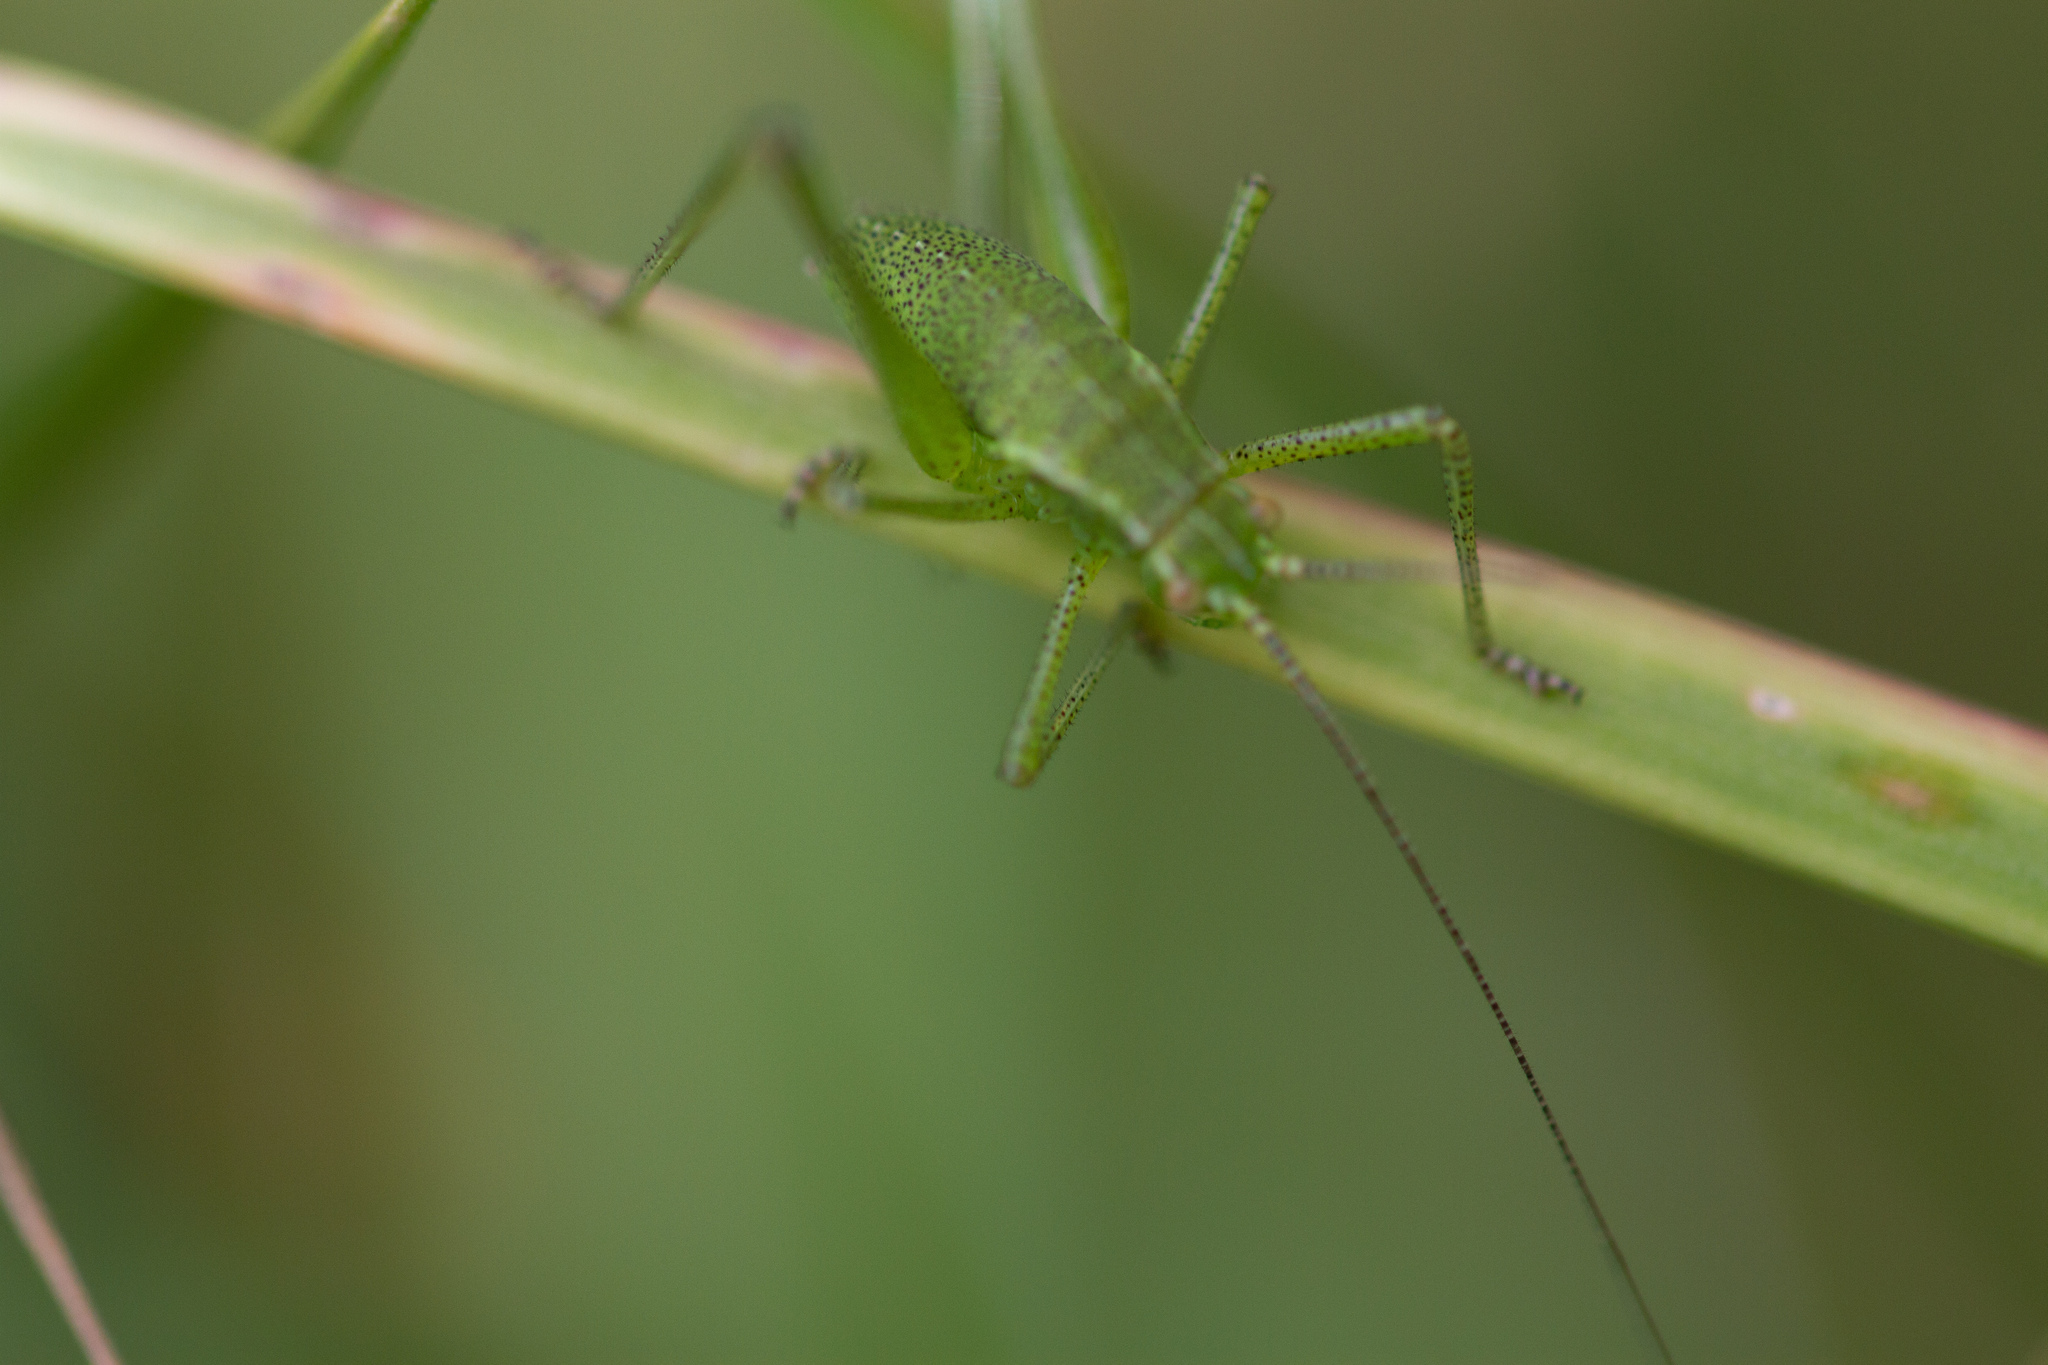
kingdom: Animalia
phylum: Arthropoda
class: Insecta
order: Orthoptera
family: Tettigoniidae
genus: Leptophyes
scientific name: Leptophyes punctatissima
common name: Speckled bush-cricket
